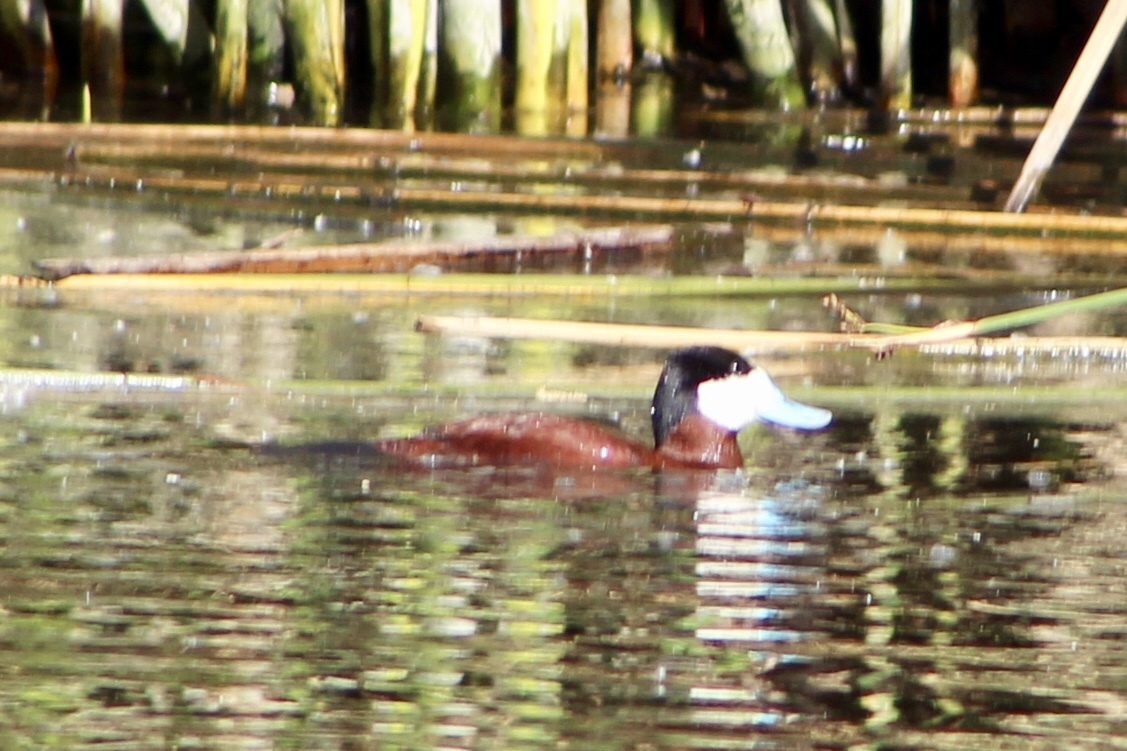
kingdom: Animalia
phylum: Chordata
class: Aves
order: Anseriformes
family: Anatidae
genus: Oxyura
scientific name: Oxyura jamaicensis
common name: Ruddy duck
